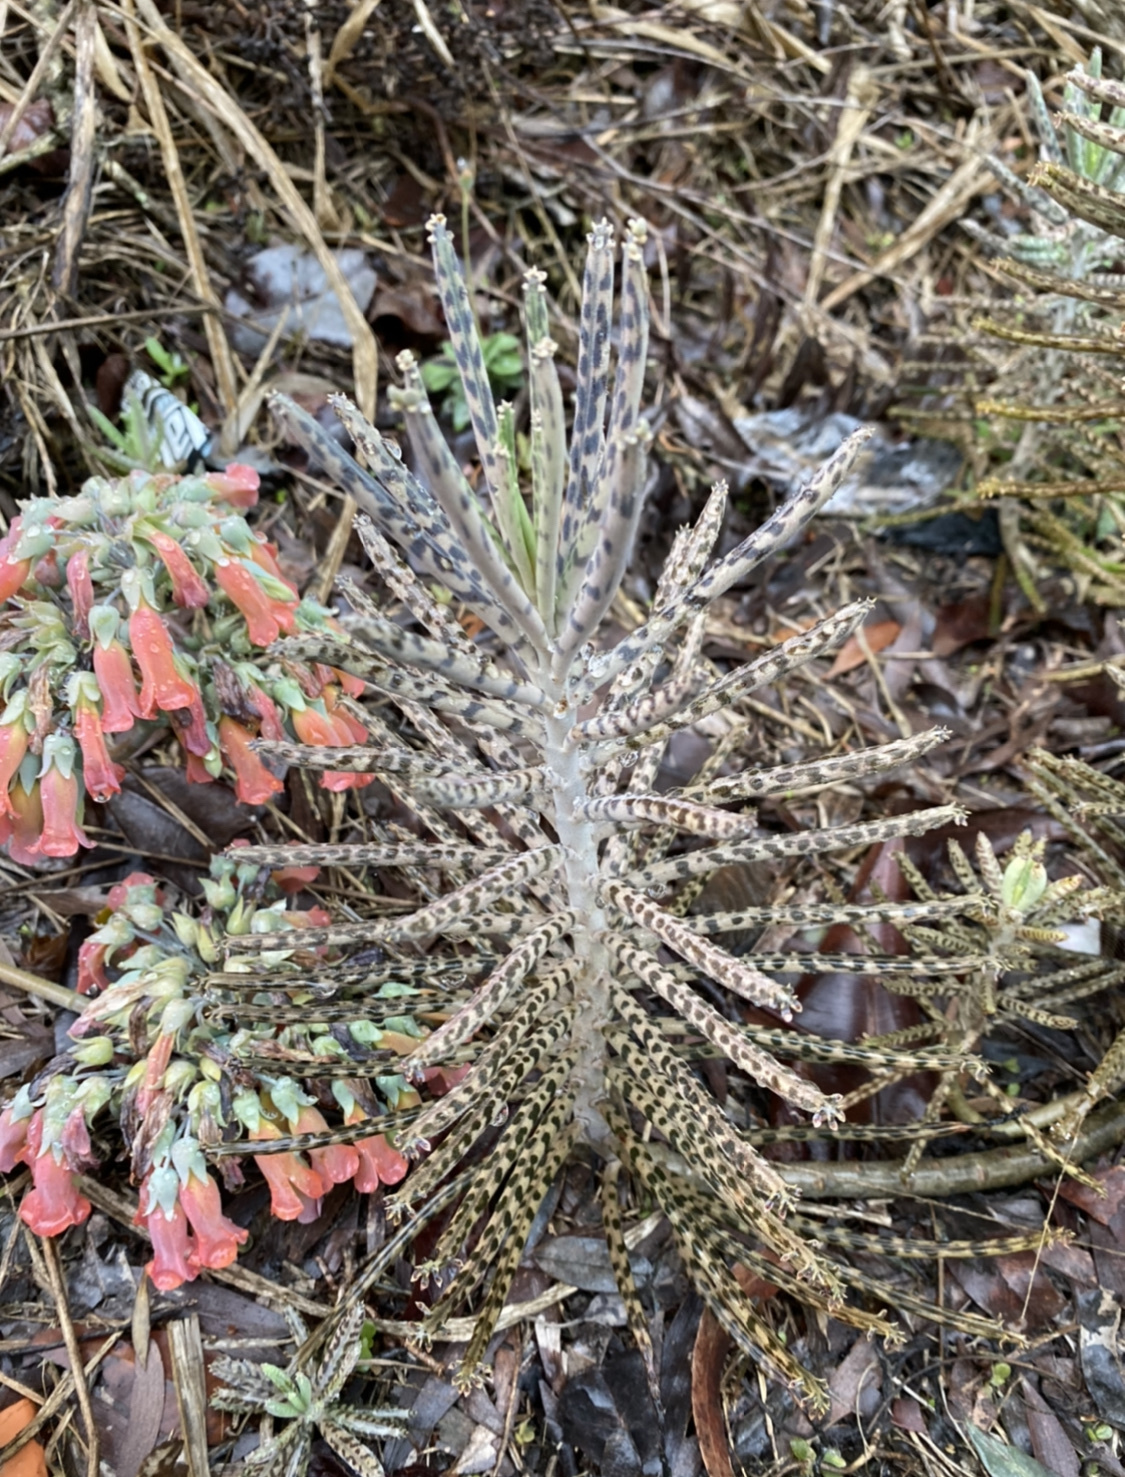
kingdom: Plantae
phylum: Tracheophyta
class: Magnoliopsida
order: Saxifragales
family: Crassulaceae
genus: Kalanchoe
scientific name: Kalanchoe delagoensis
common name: Chandelier plant
